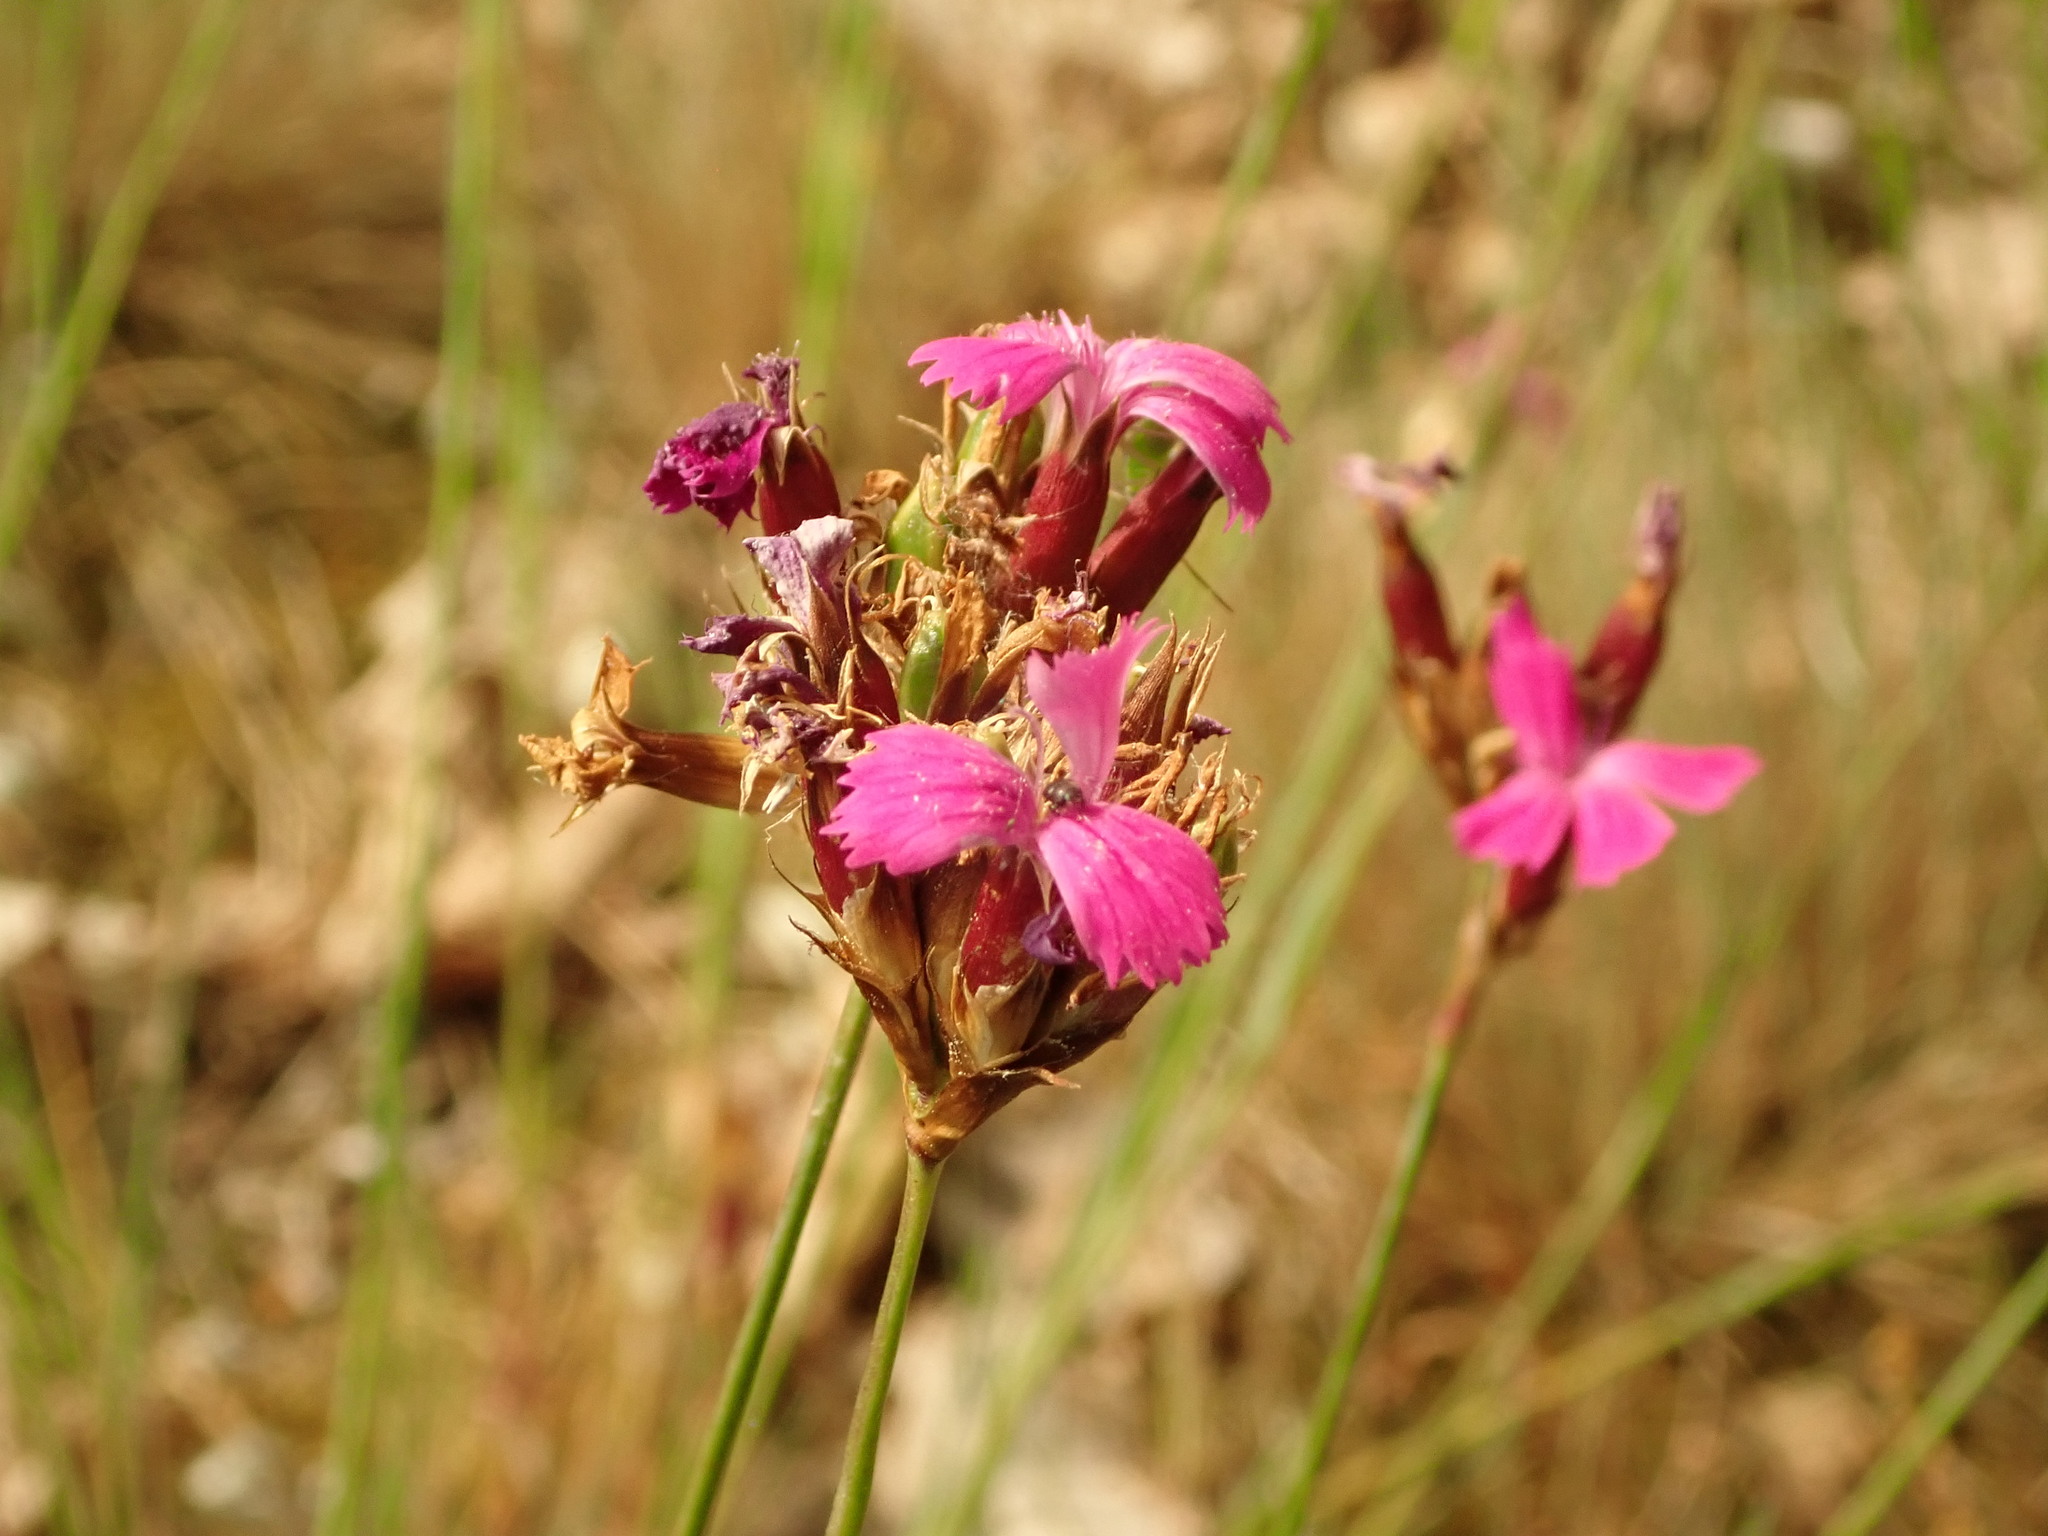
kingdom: Plantae
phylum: Tracheophyta
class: Magnoliopsida
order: Caryophyllales
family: Caryophyllaceae
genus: Dianthus
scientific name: Dianthus carthusianorum
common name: Carthusian pink
